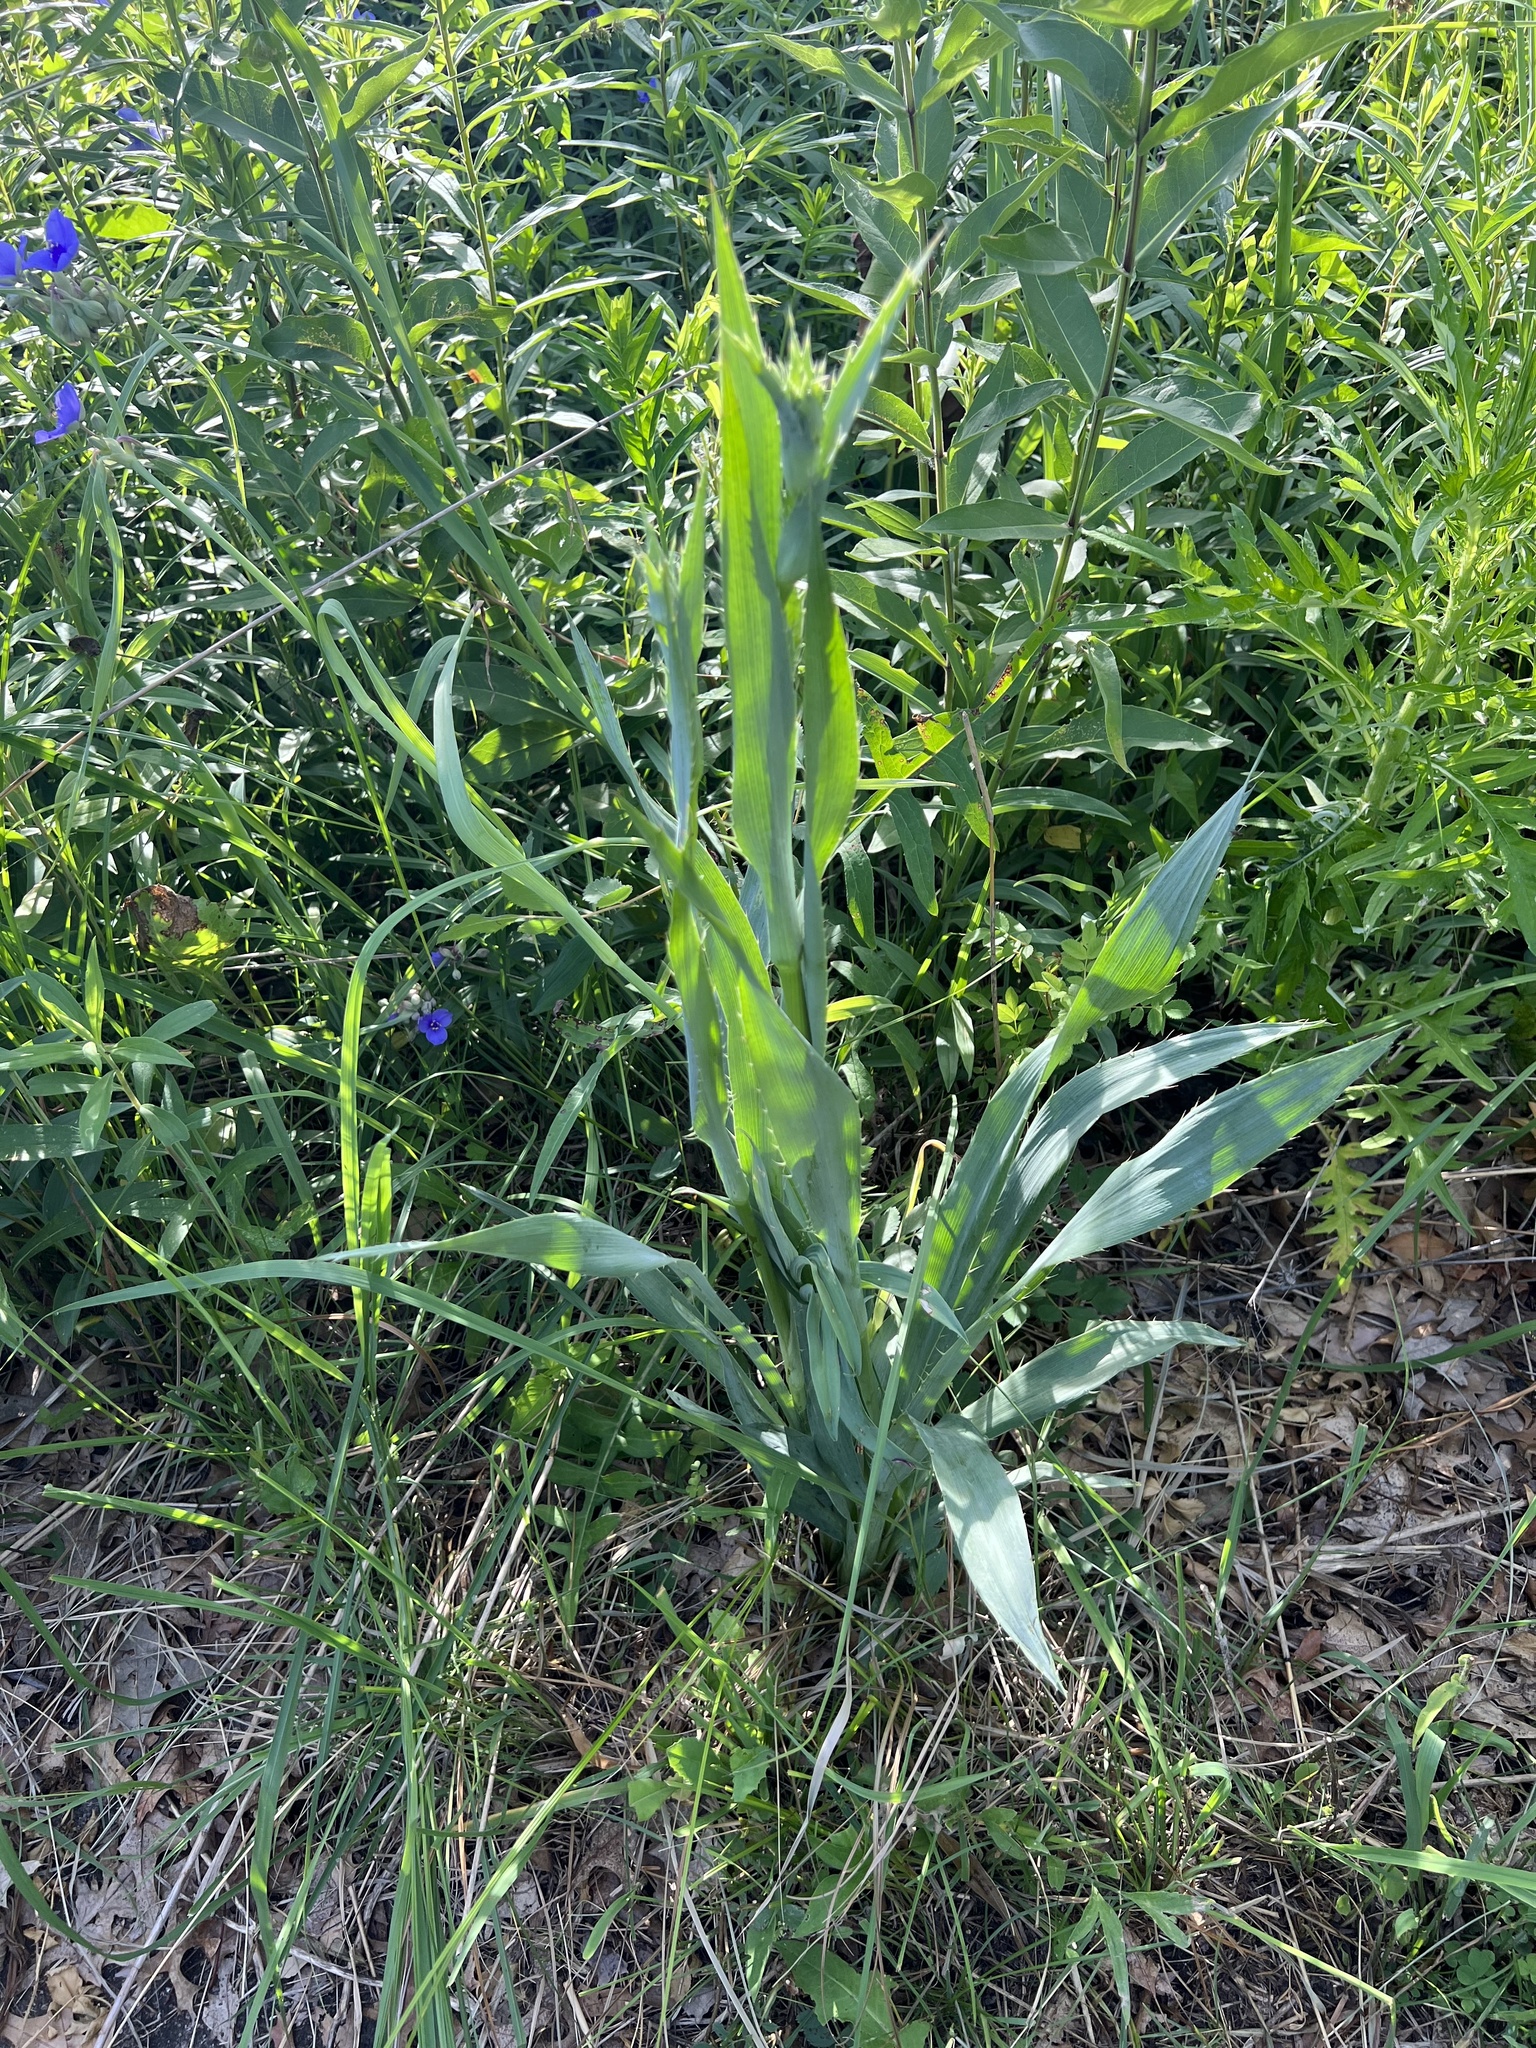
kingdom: Plantae
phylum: Tracheophyta
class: Magnoliopsida
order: Apiales
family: Apiaceae
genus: Eryngium
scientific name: Eryngium yuccifolium
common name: Button eryngo
